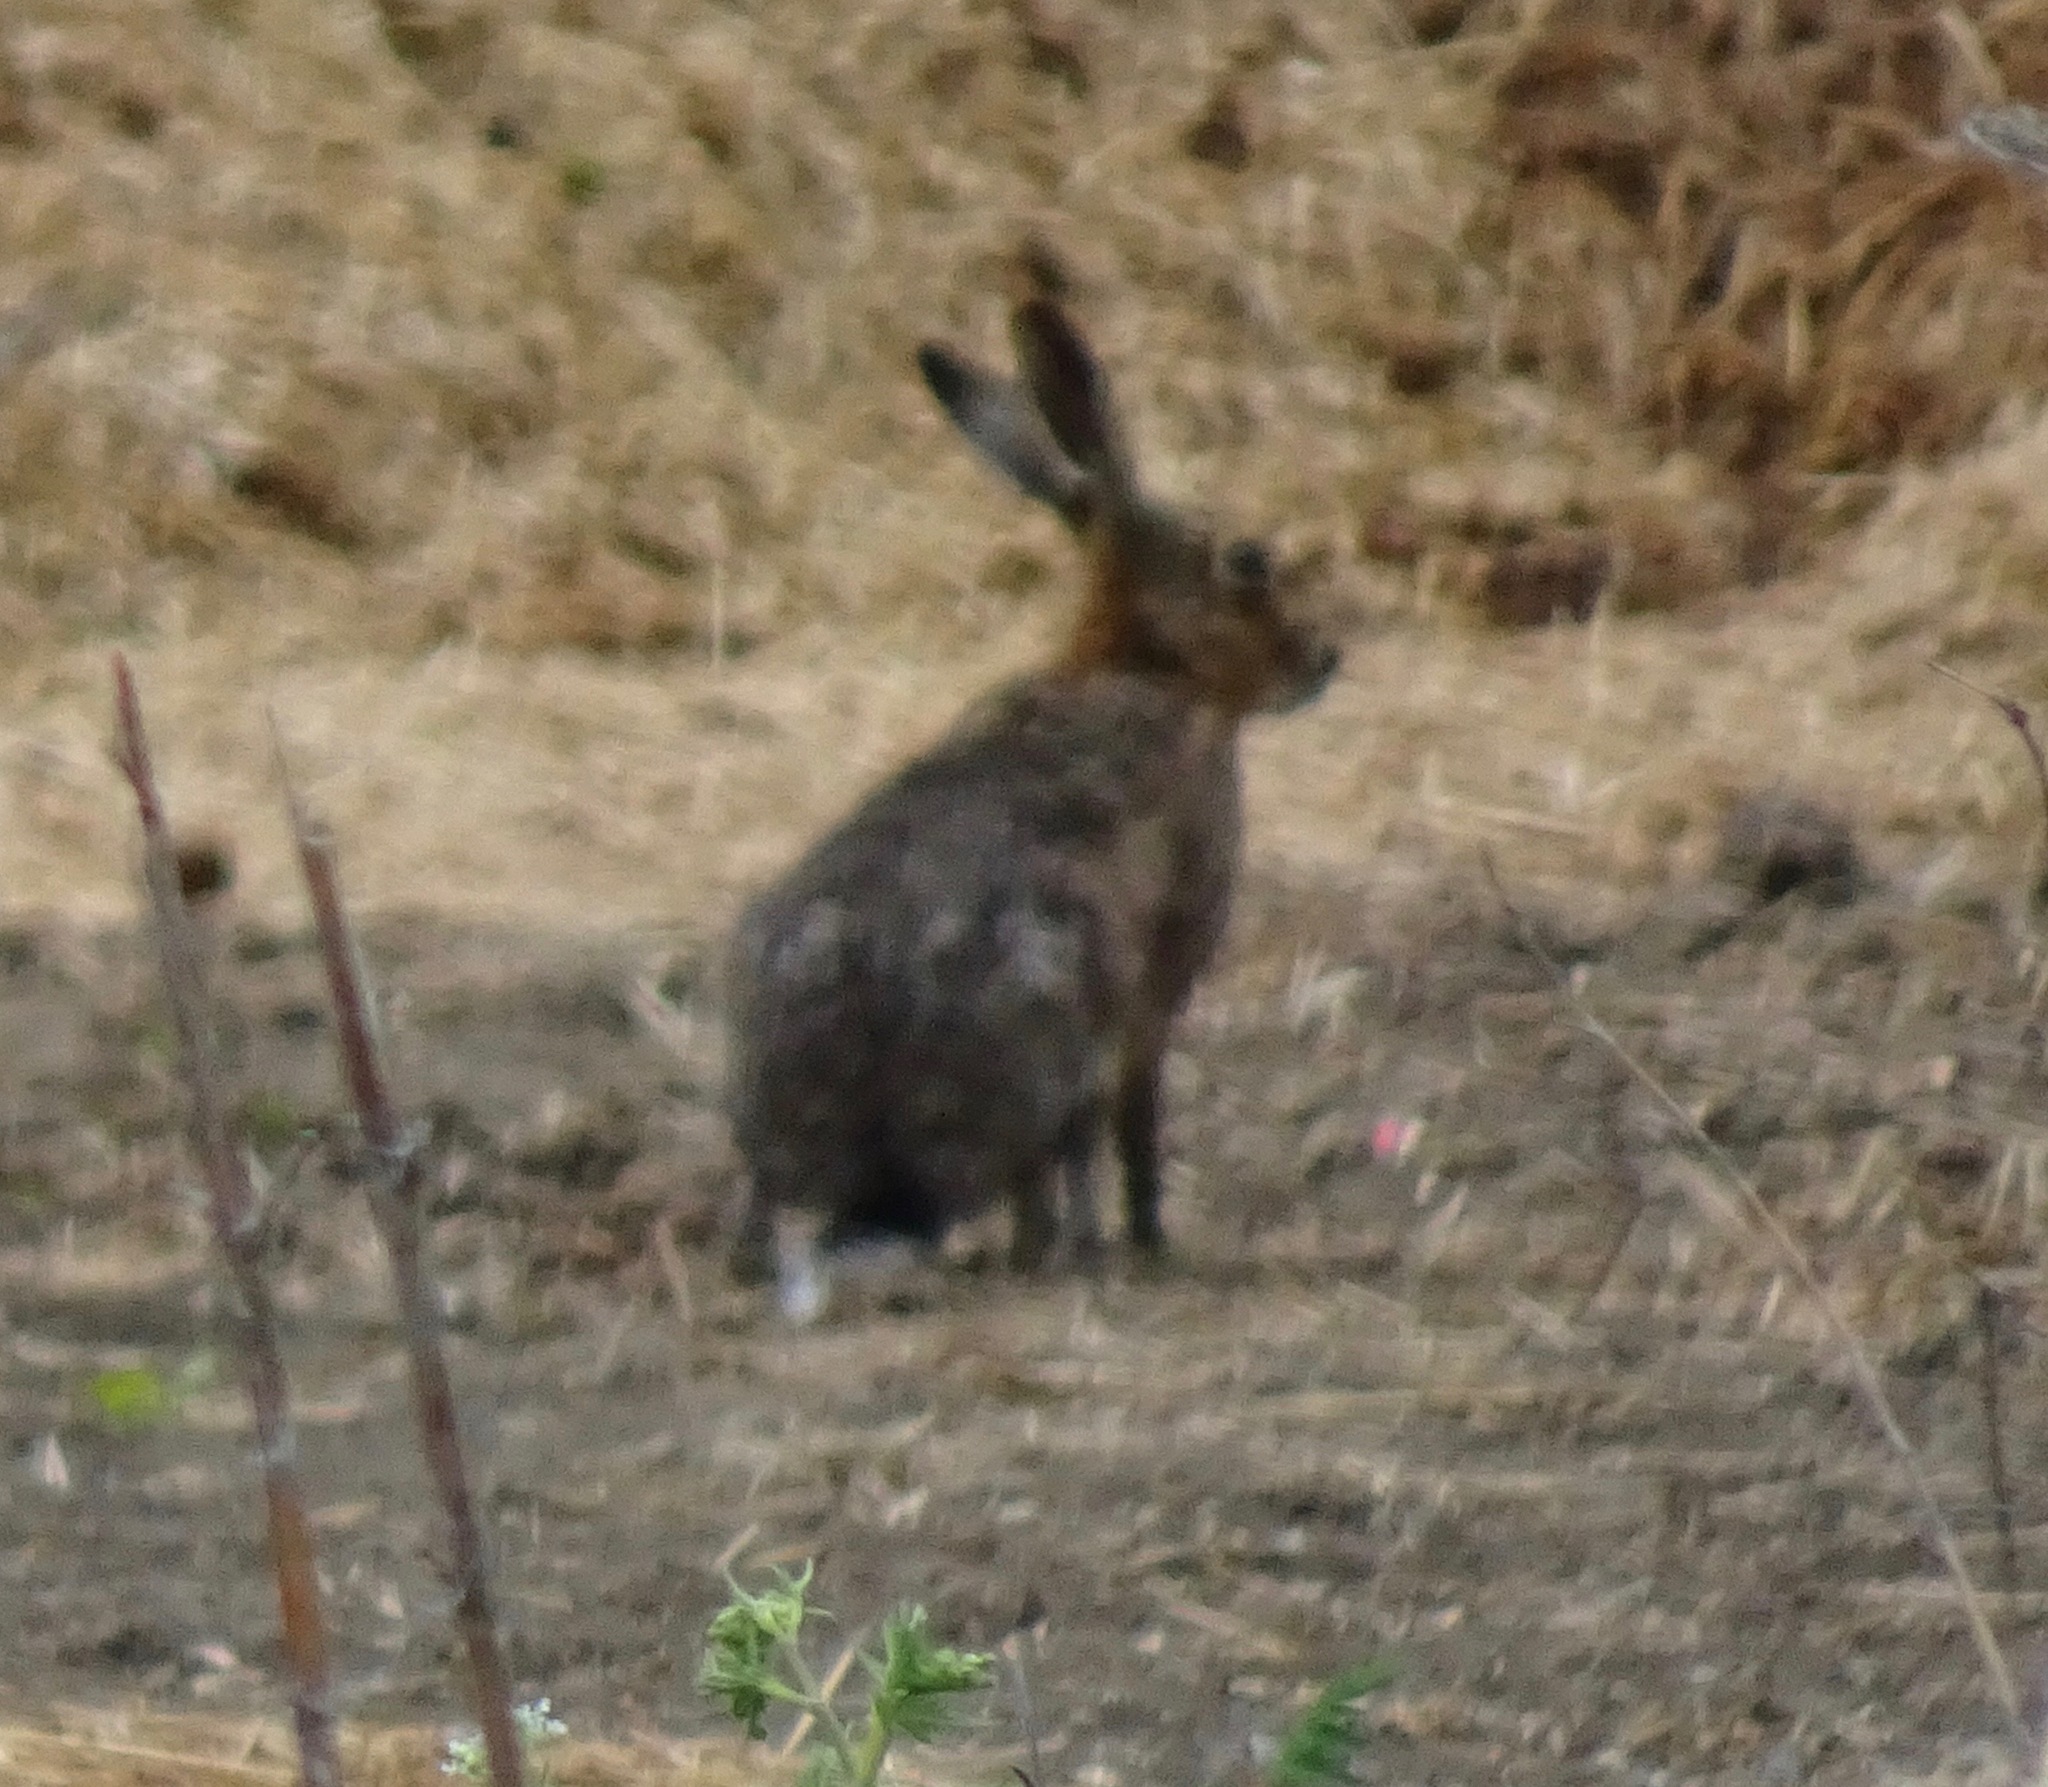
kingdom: Animalia
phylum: Chordata
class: Mammalia
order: Lagomorpha
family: Leporidae
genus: Lepus
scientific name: Lepus europaeus
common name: European hare
